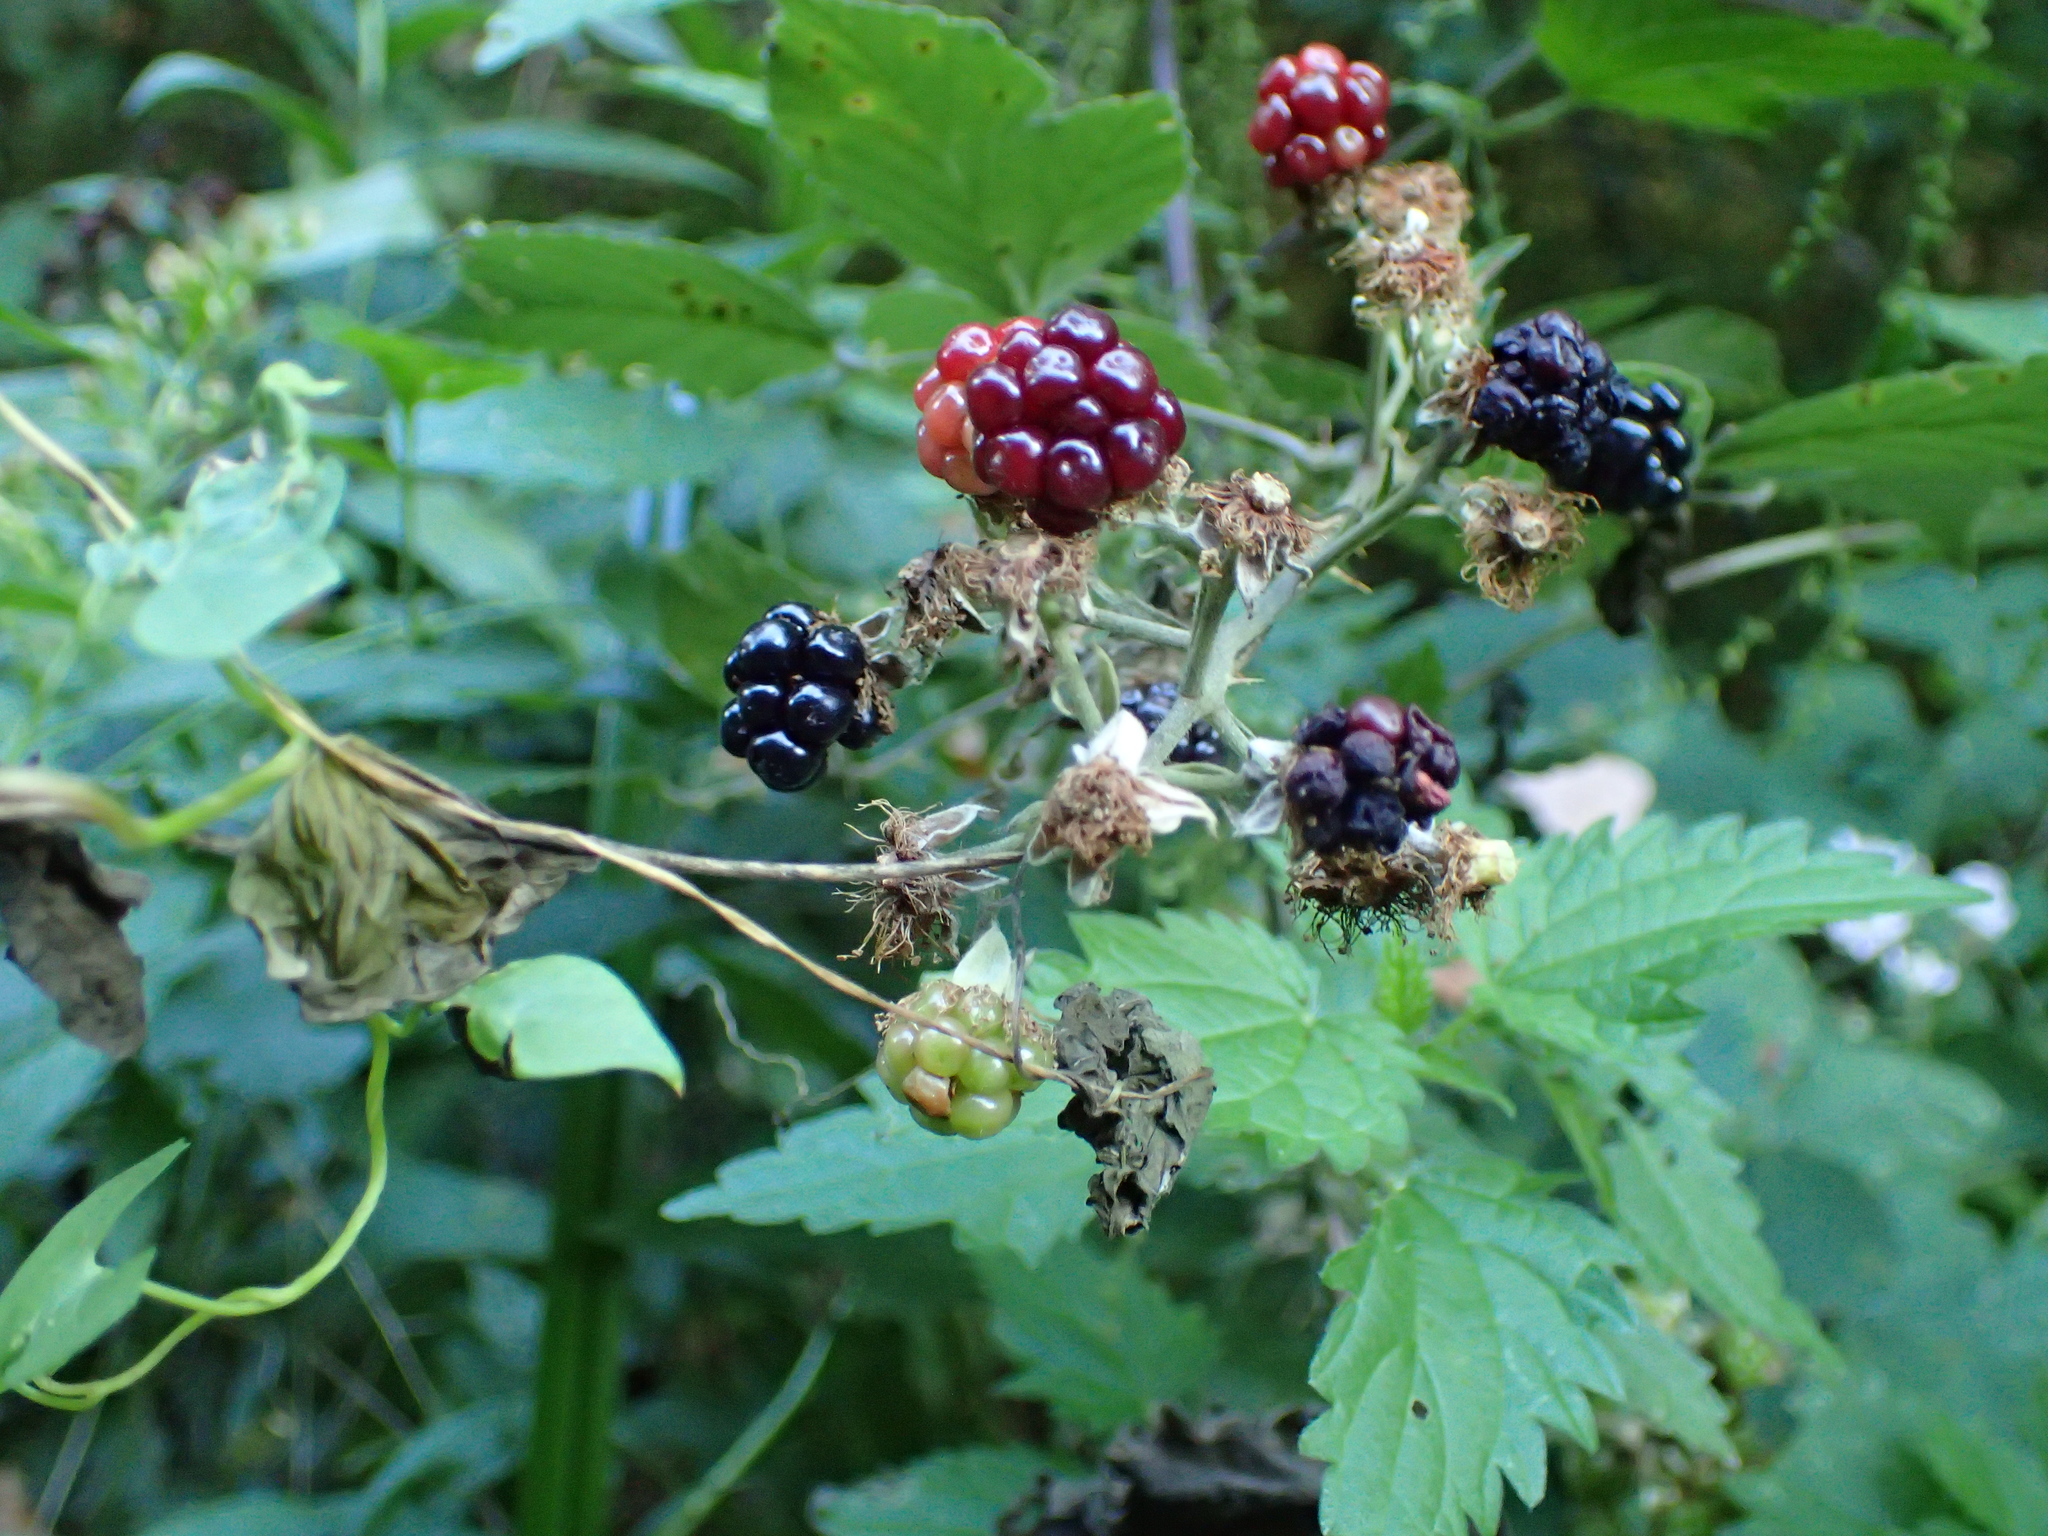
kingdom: Plantae
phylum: Tracheophyta
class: Magnoliopsida
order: Rosales
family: Rosaceae
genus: Rubus
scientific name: Rubus
